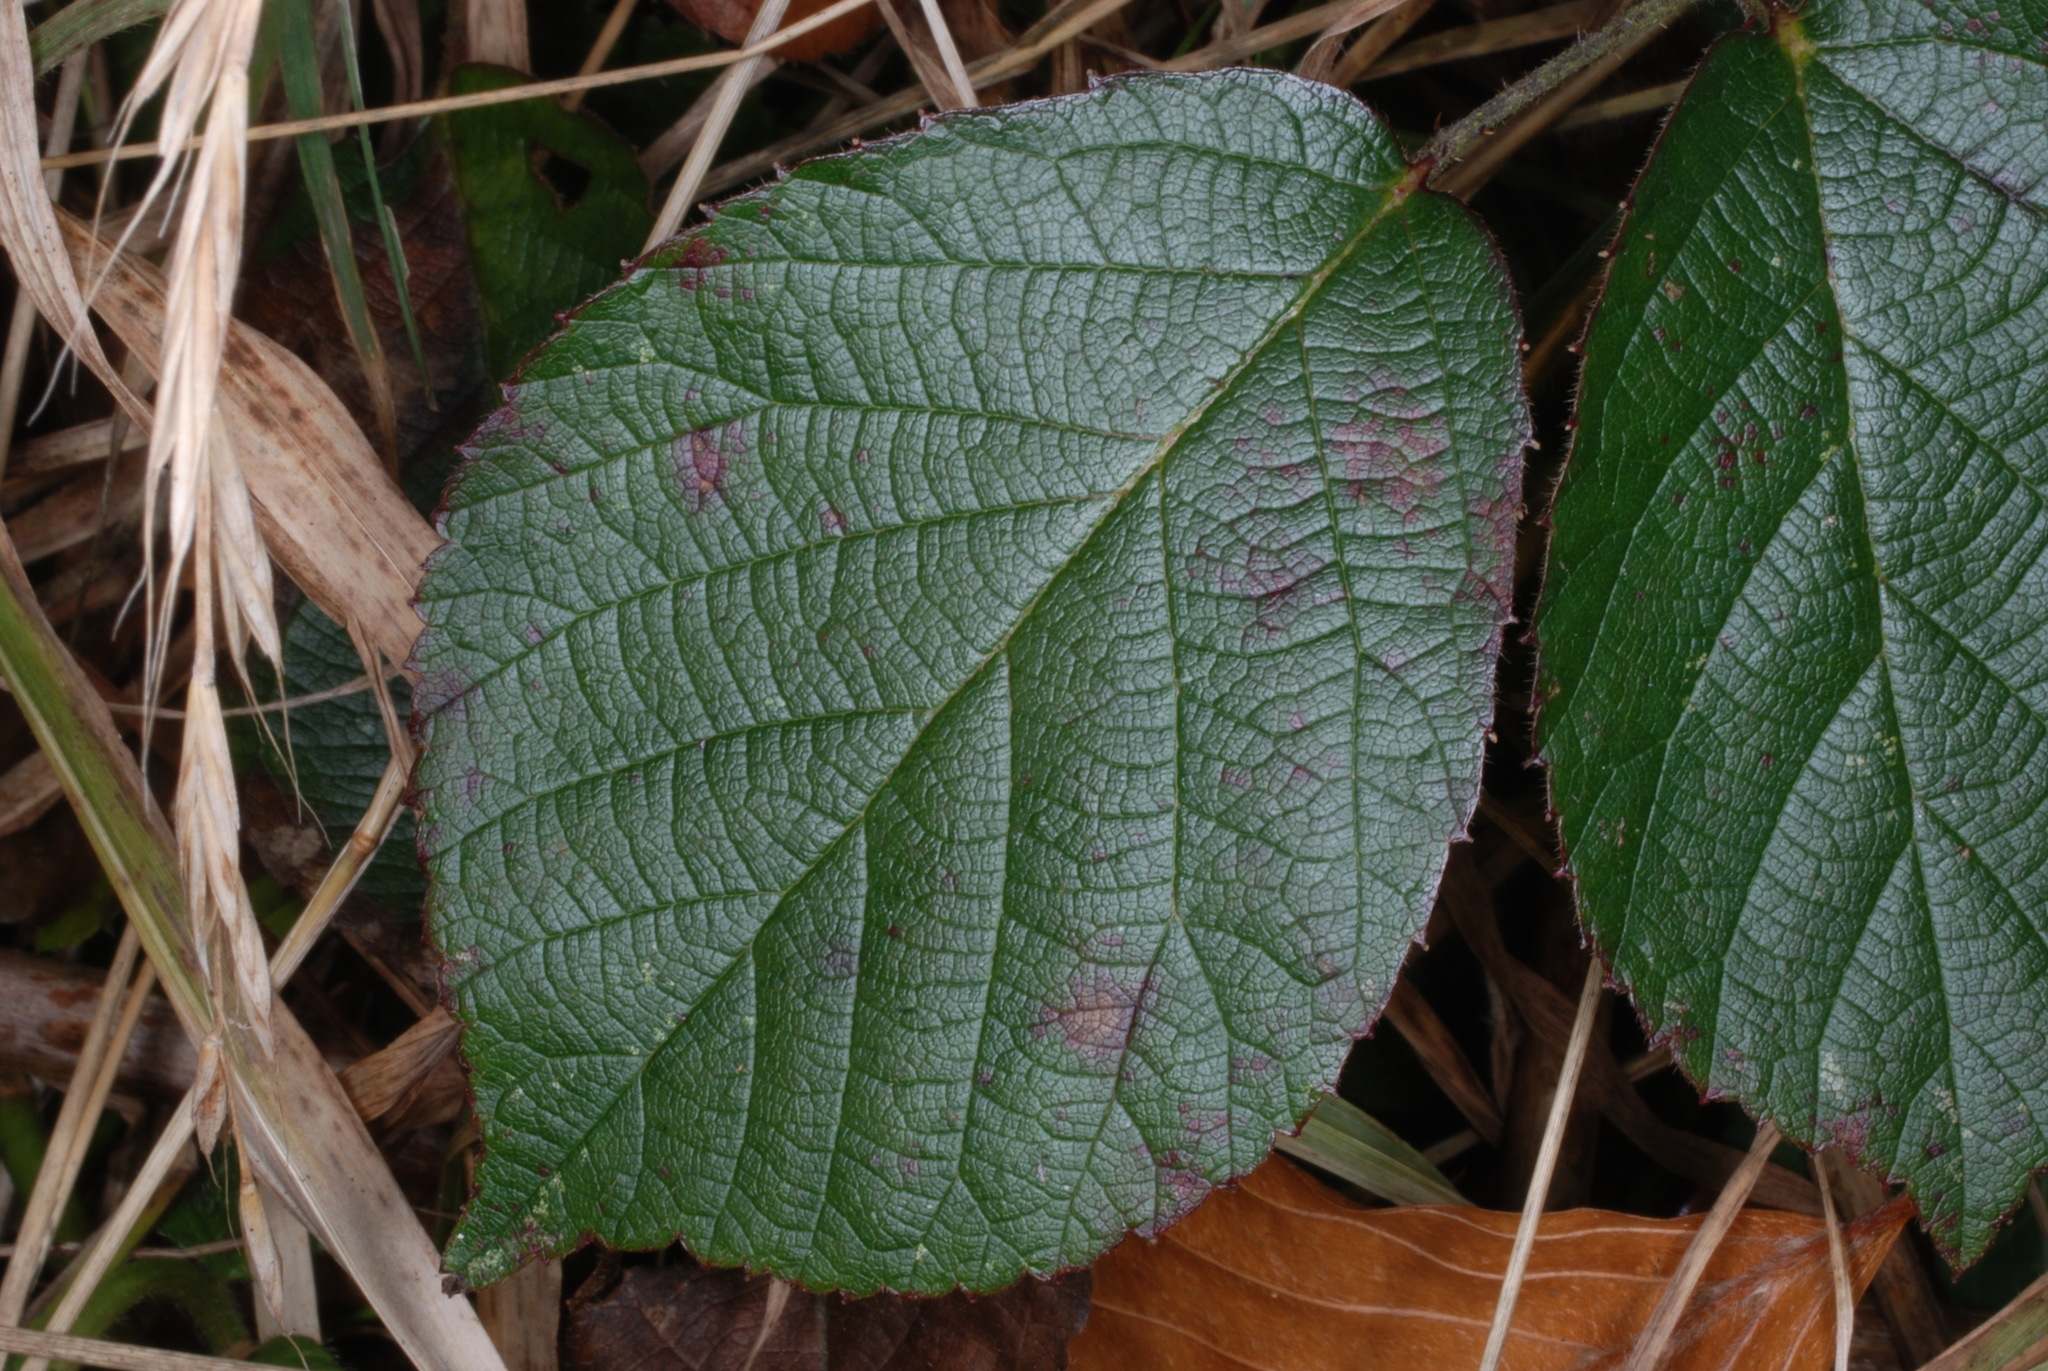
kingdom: Plantae
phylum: Tracheophyta
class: Magnoliopsida
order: Rosales
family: Rosaceae
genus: Rubus
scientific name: Rubus
